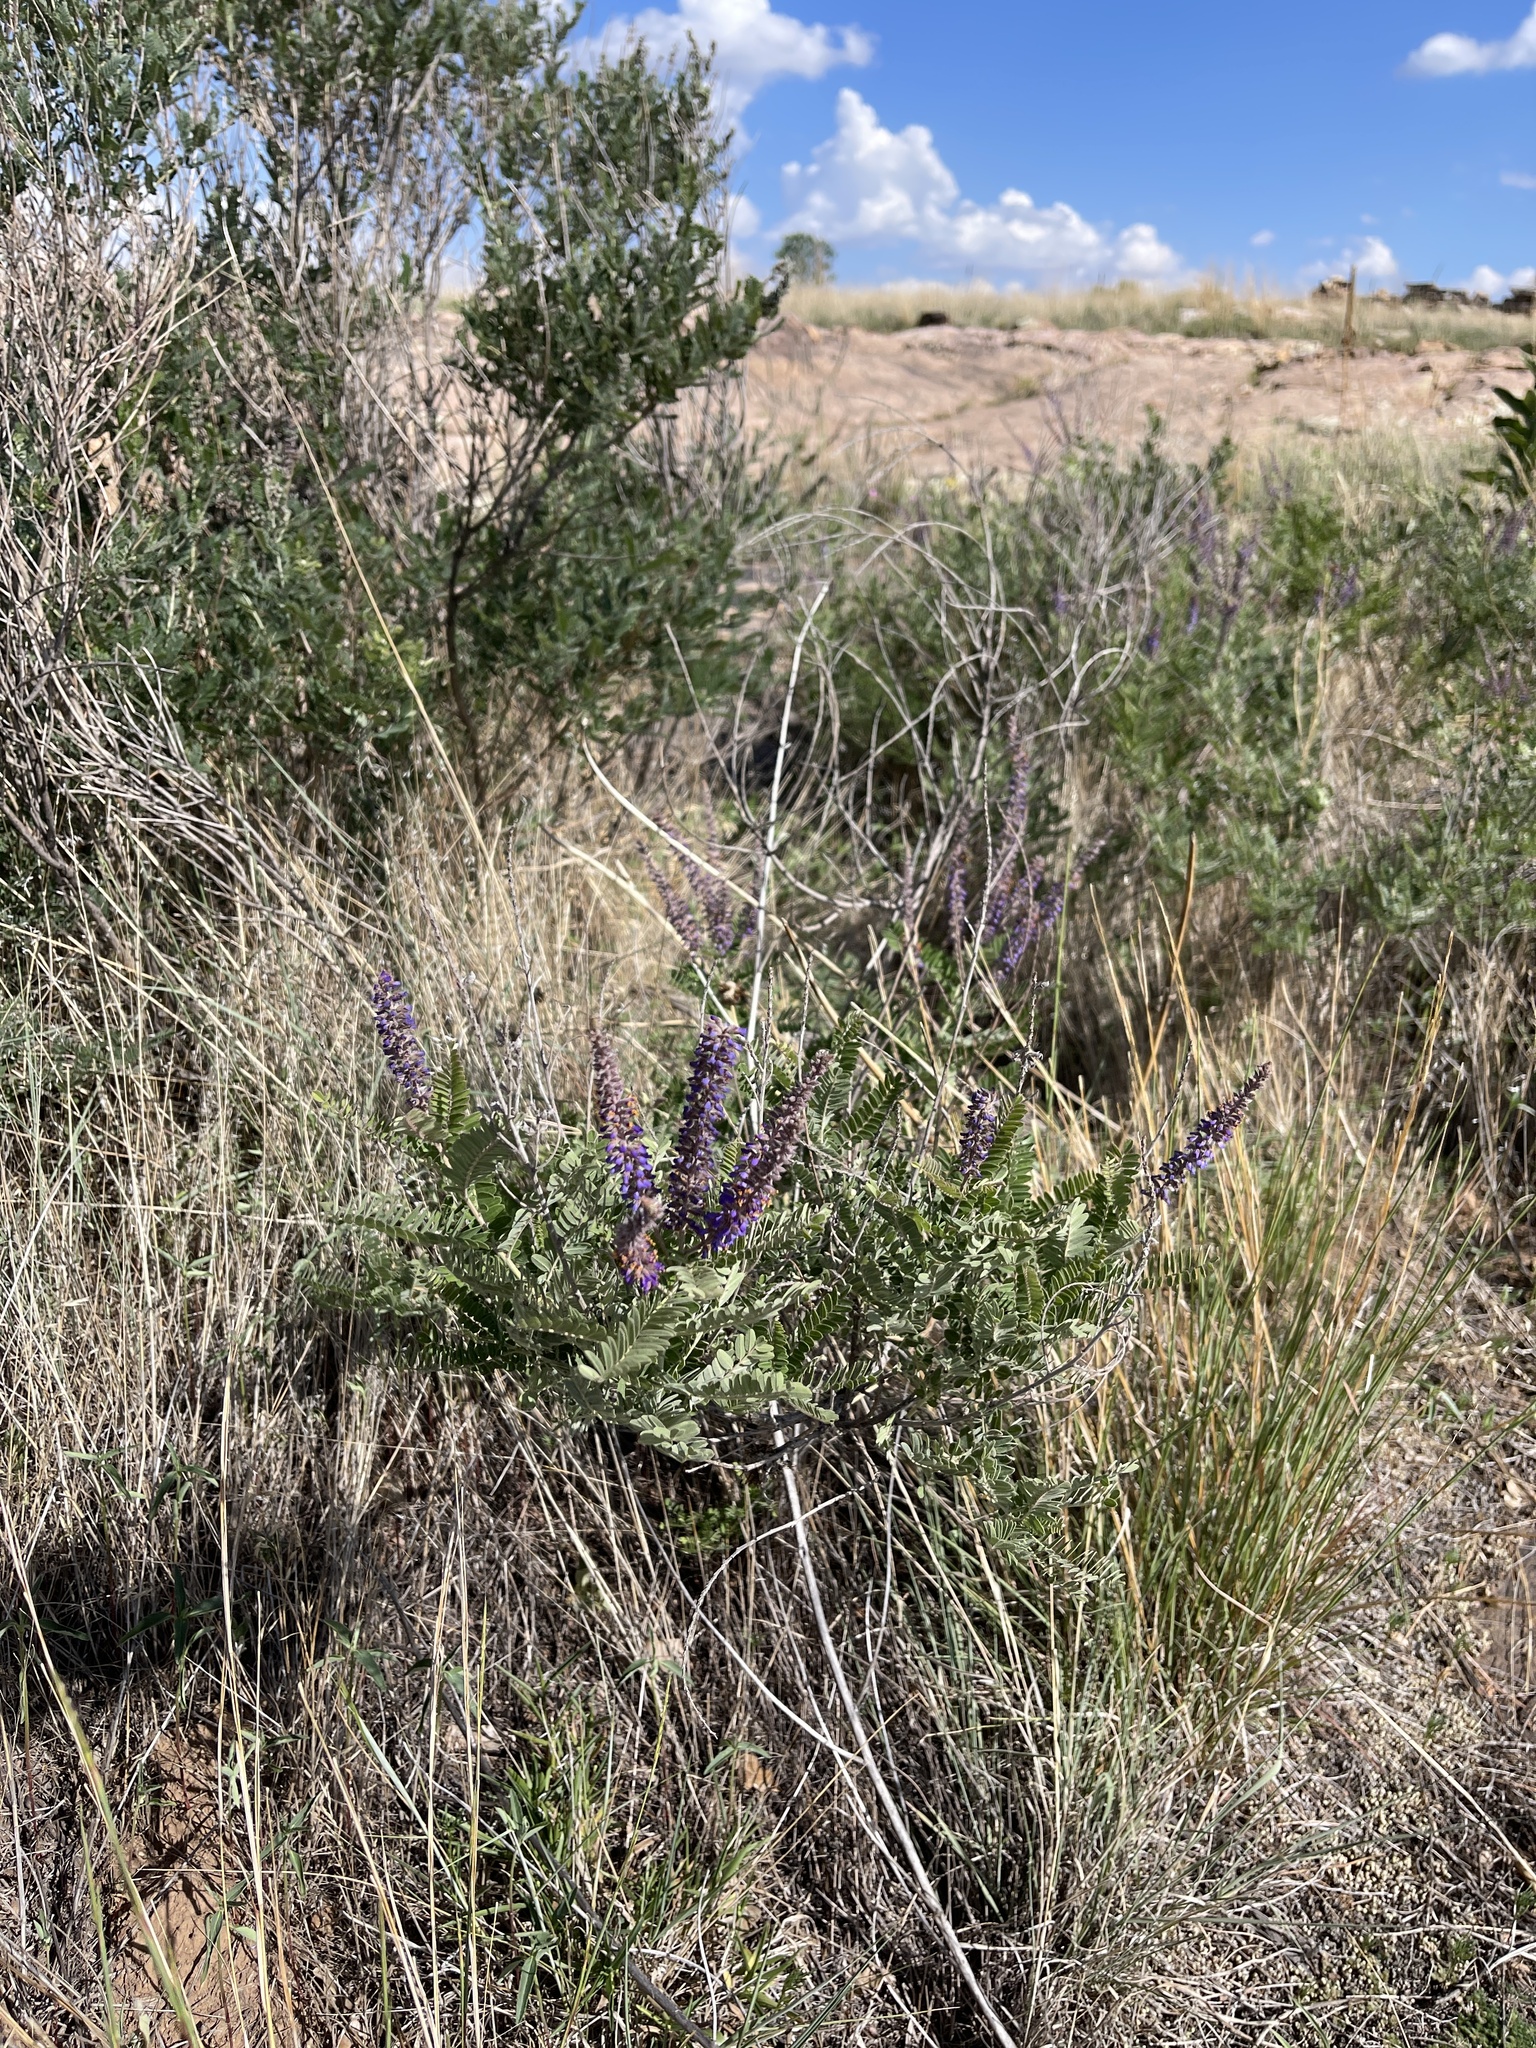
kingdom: Plantae
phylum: Tracheophyta
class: Magnoliopsida
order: Fabales
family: Fabaceae
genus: Amorpha
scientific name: Amorpha canescens
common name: Leadplant
